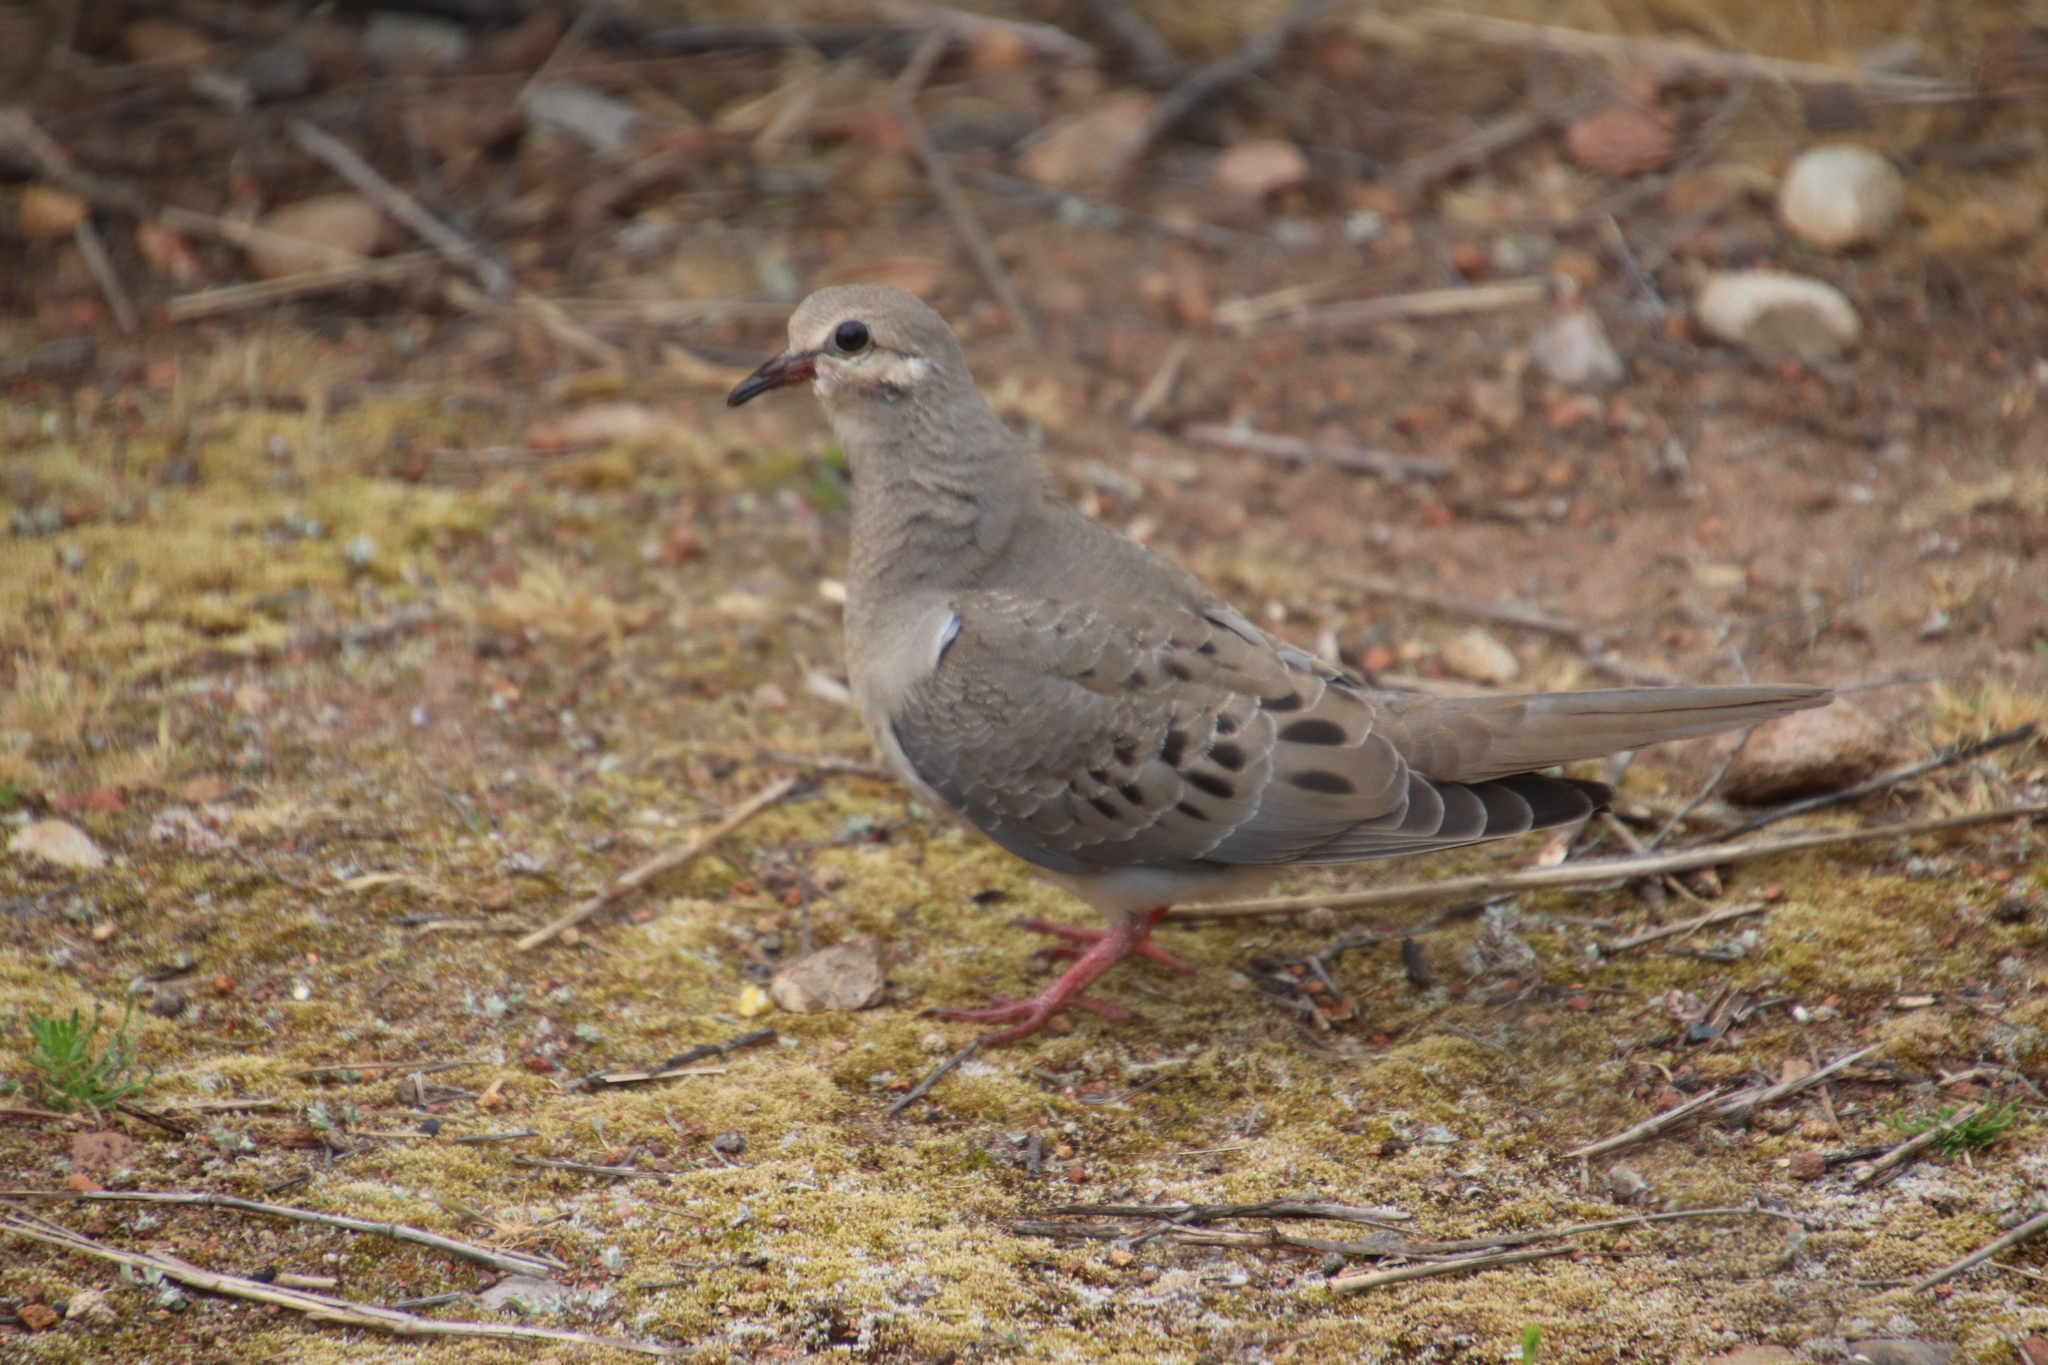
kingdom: Animalia
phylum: Chordata
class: Aves
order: Columbiformes
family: Columbidae
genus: Zenaida
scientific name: Zenaida macroura
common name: Mourning dove
